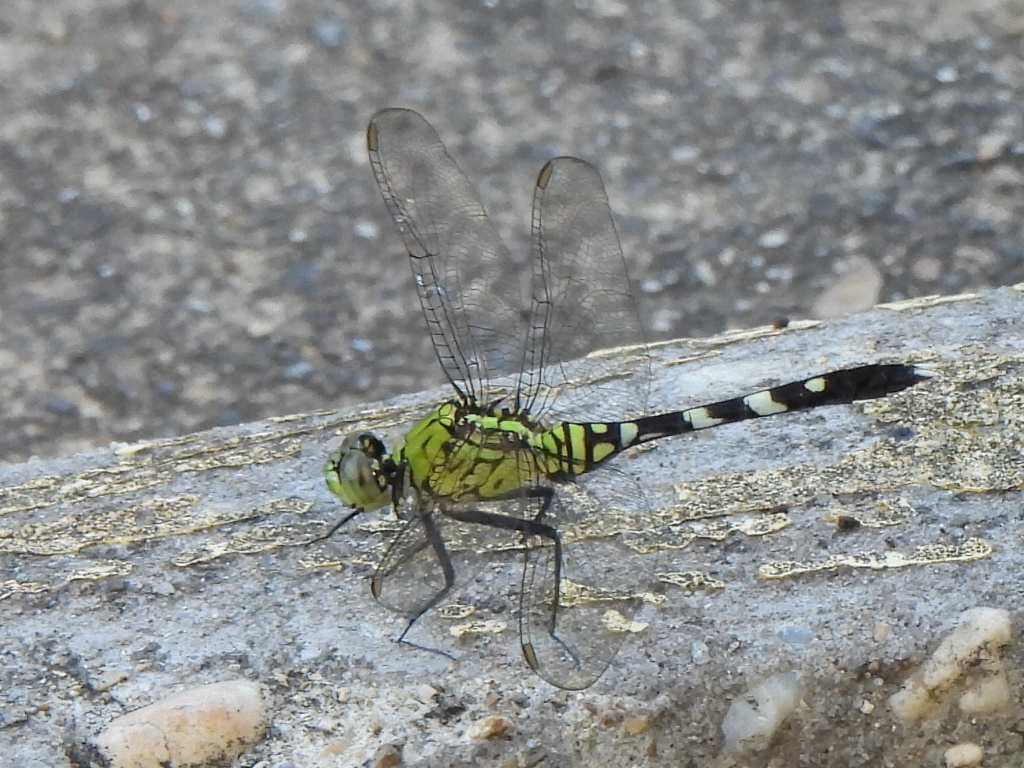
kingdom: Animalia
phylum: Arthropoda
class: Insecta
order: Odonata
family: Libellulidae
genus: Erythemis
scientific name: Erythemis simplicicollis
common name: Eastern pondhawk
